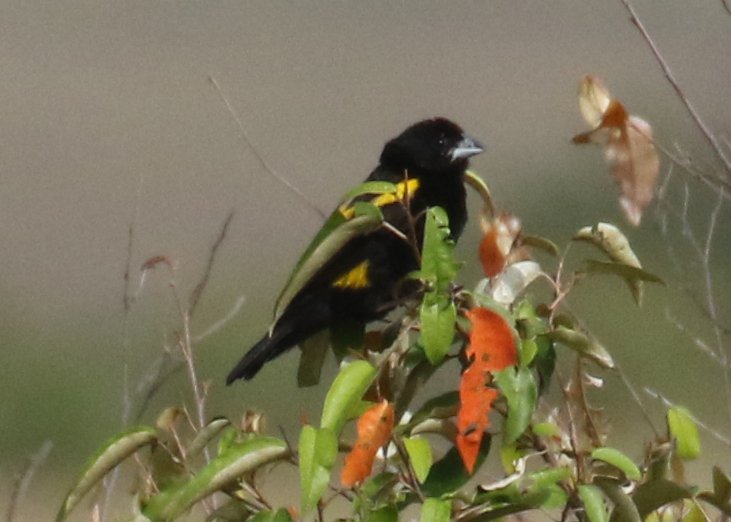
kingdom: Animalia
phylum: Chordata
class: Aves
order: Passeriformes
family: Ploceidae
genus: Euplectes
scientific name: Euplectes capensis
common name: Yellow bishop
